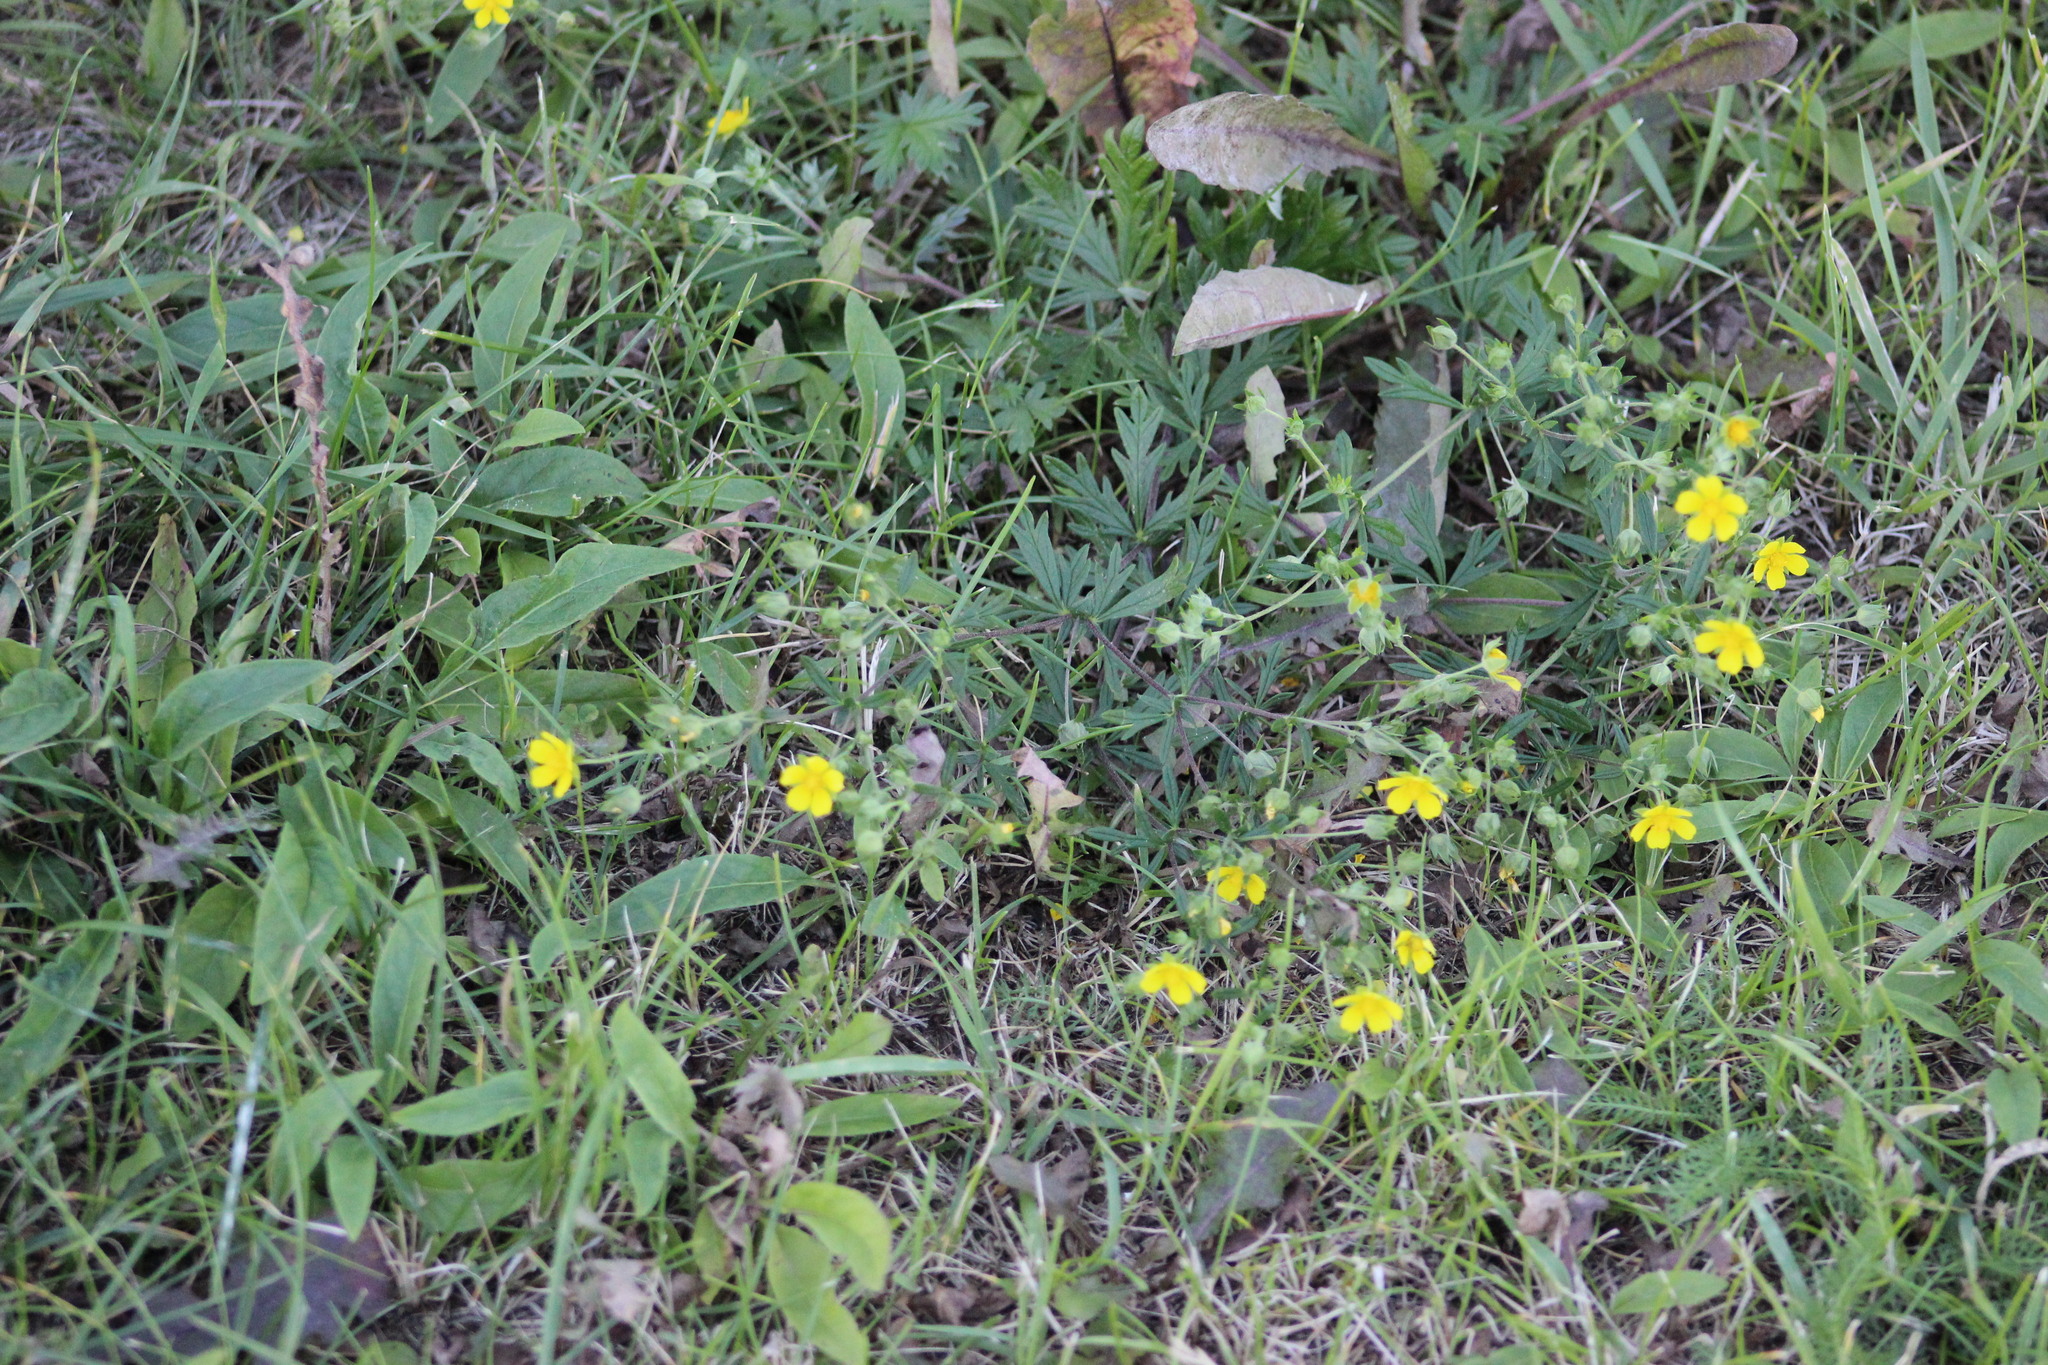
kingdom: Plantae
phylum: Tracheophyta
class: Magnoliopsida
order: Rosales
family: Rosaceae
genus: Potentilla
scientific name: Potentilla argentea
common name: Hoary cinquefoil
